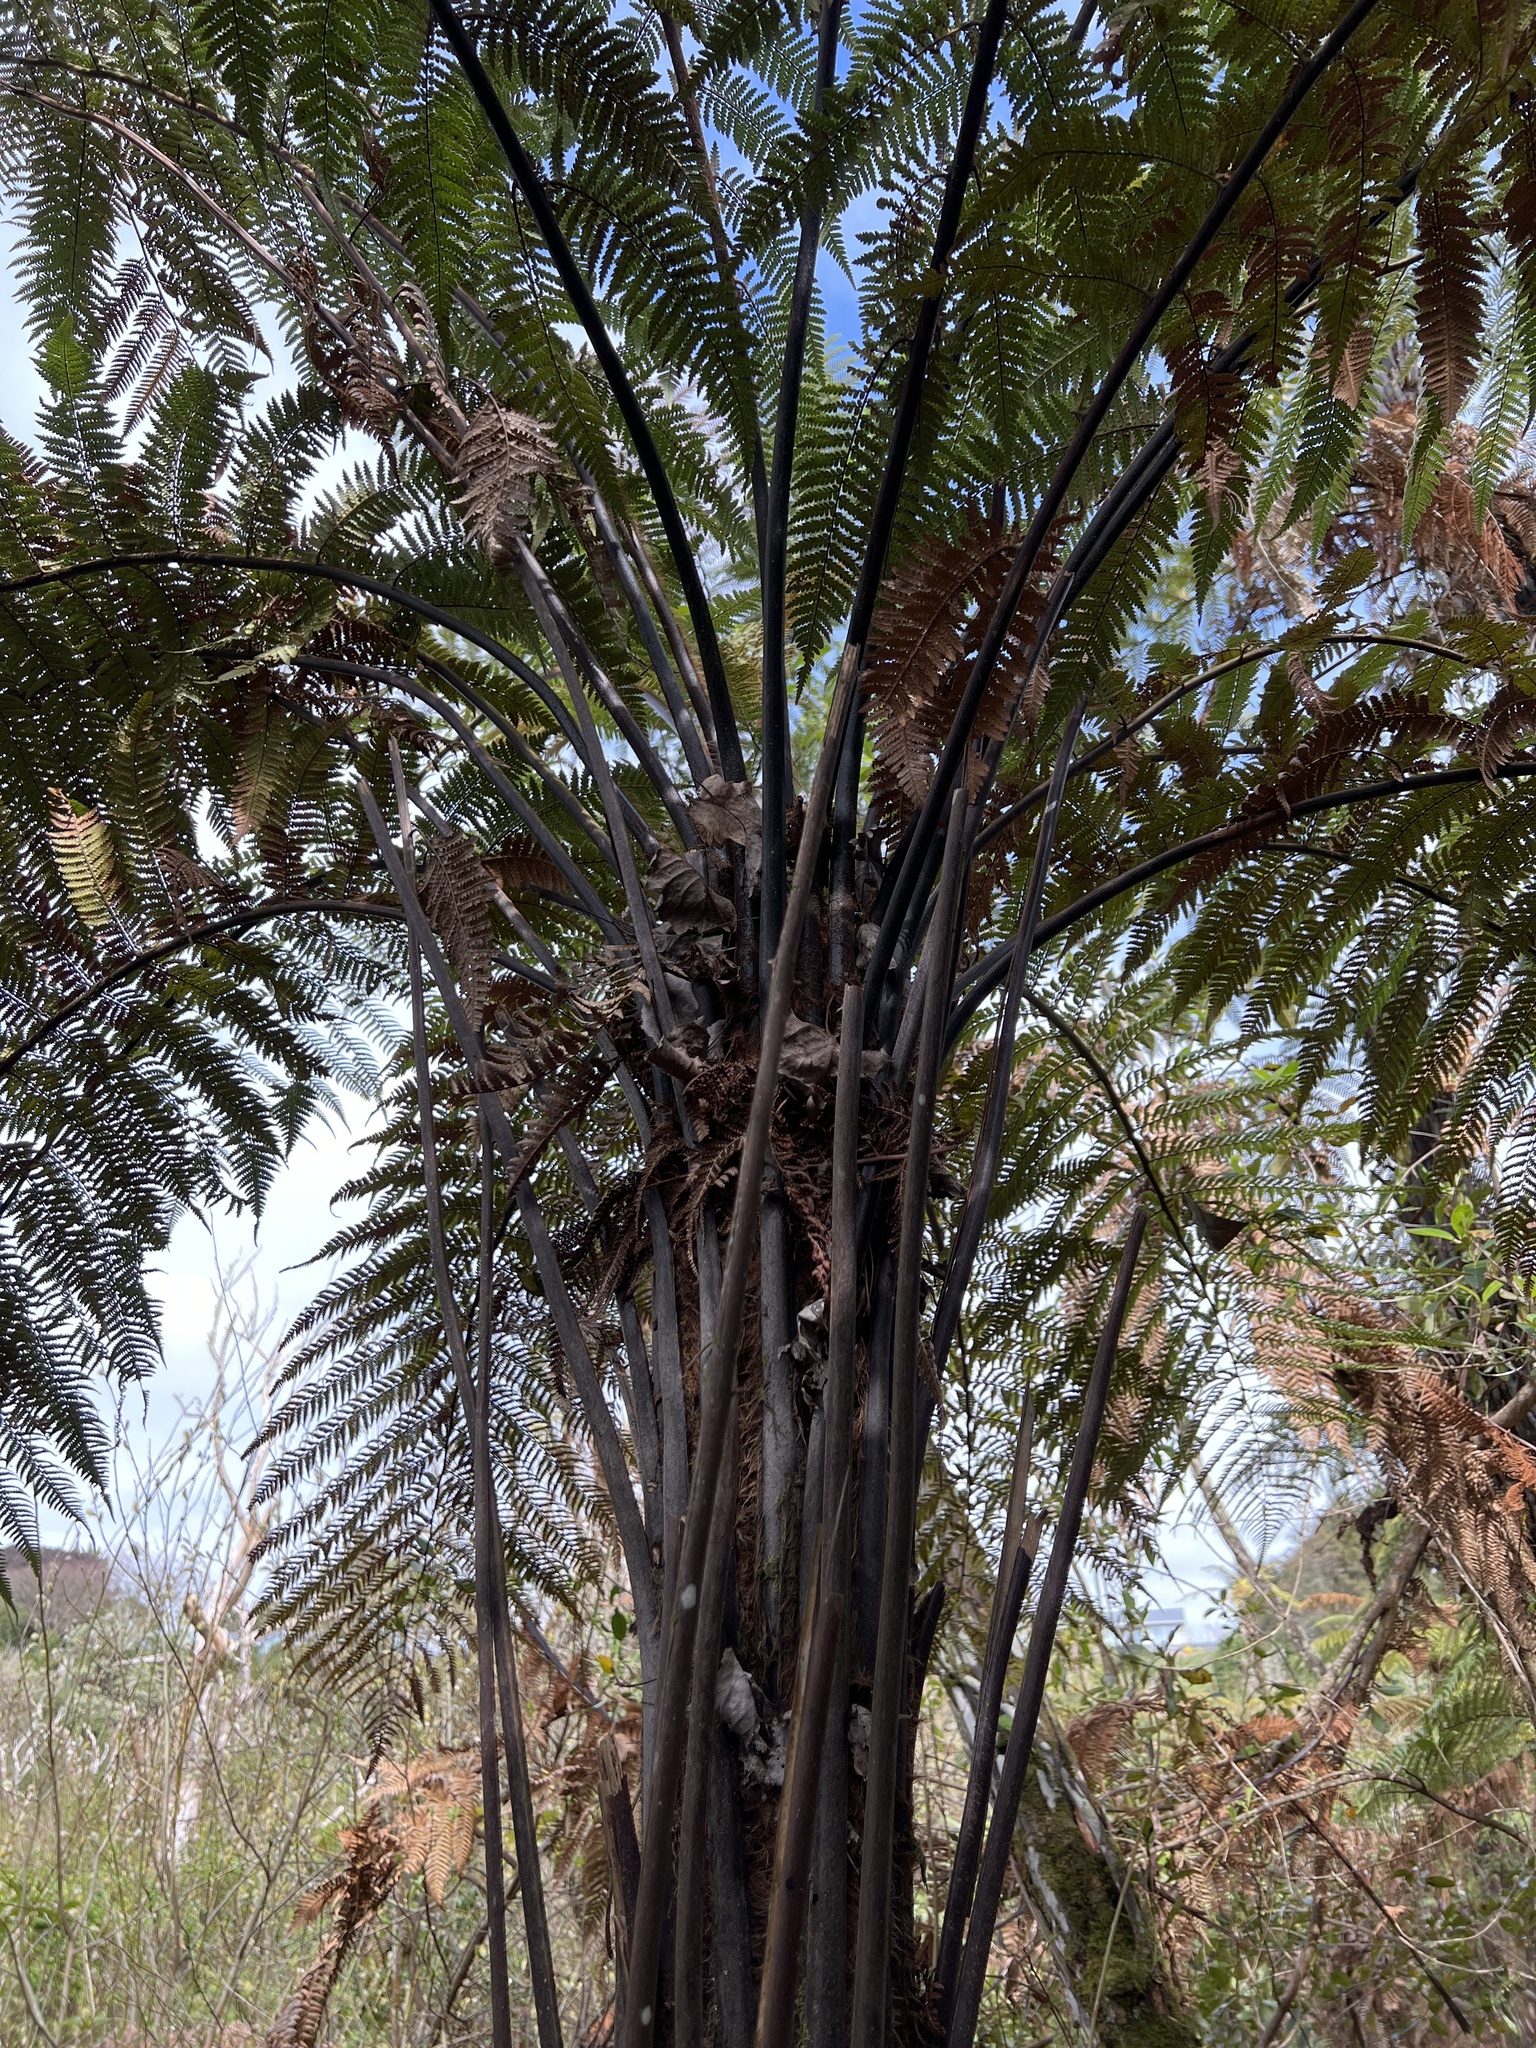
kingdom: Plantae
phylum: Tracheophyta
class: Polypodiopsida
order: Cyatheales
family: Dicksoniaceae
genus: Dicksonia
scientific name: Dicksonia squarrosa
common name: Hard treefern
